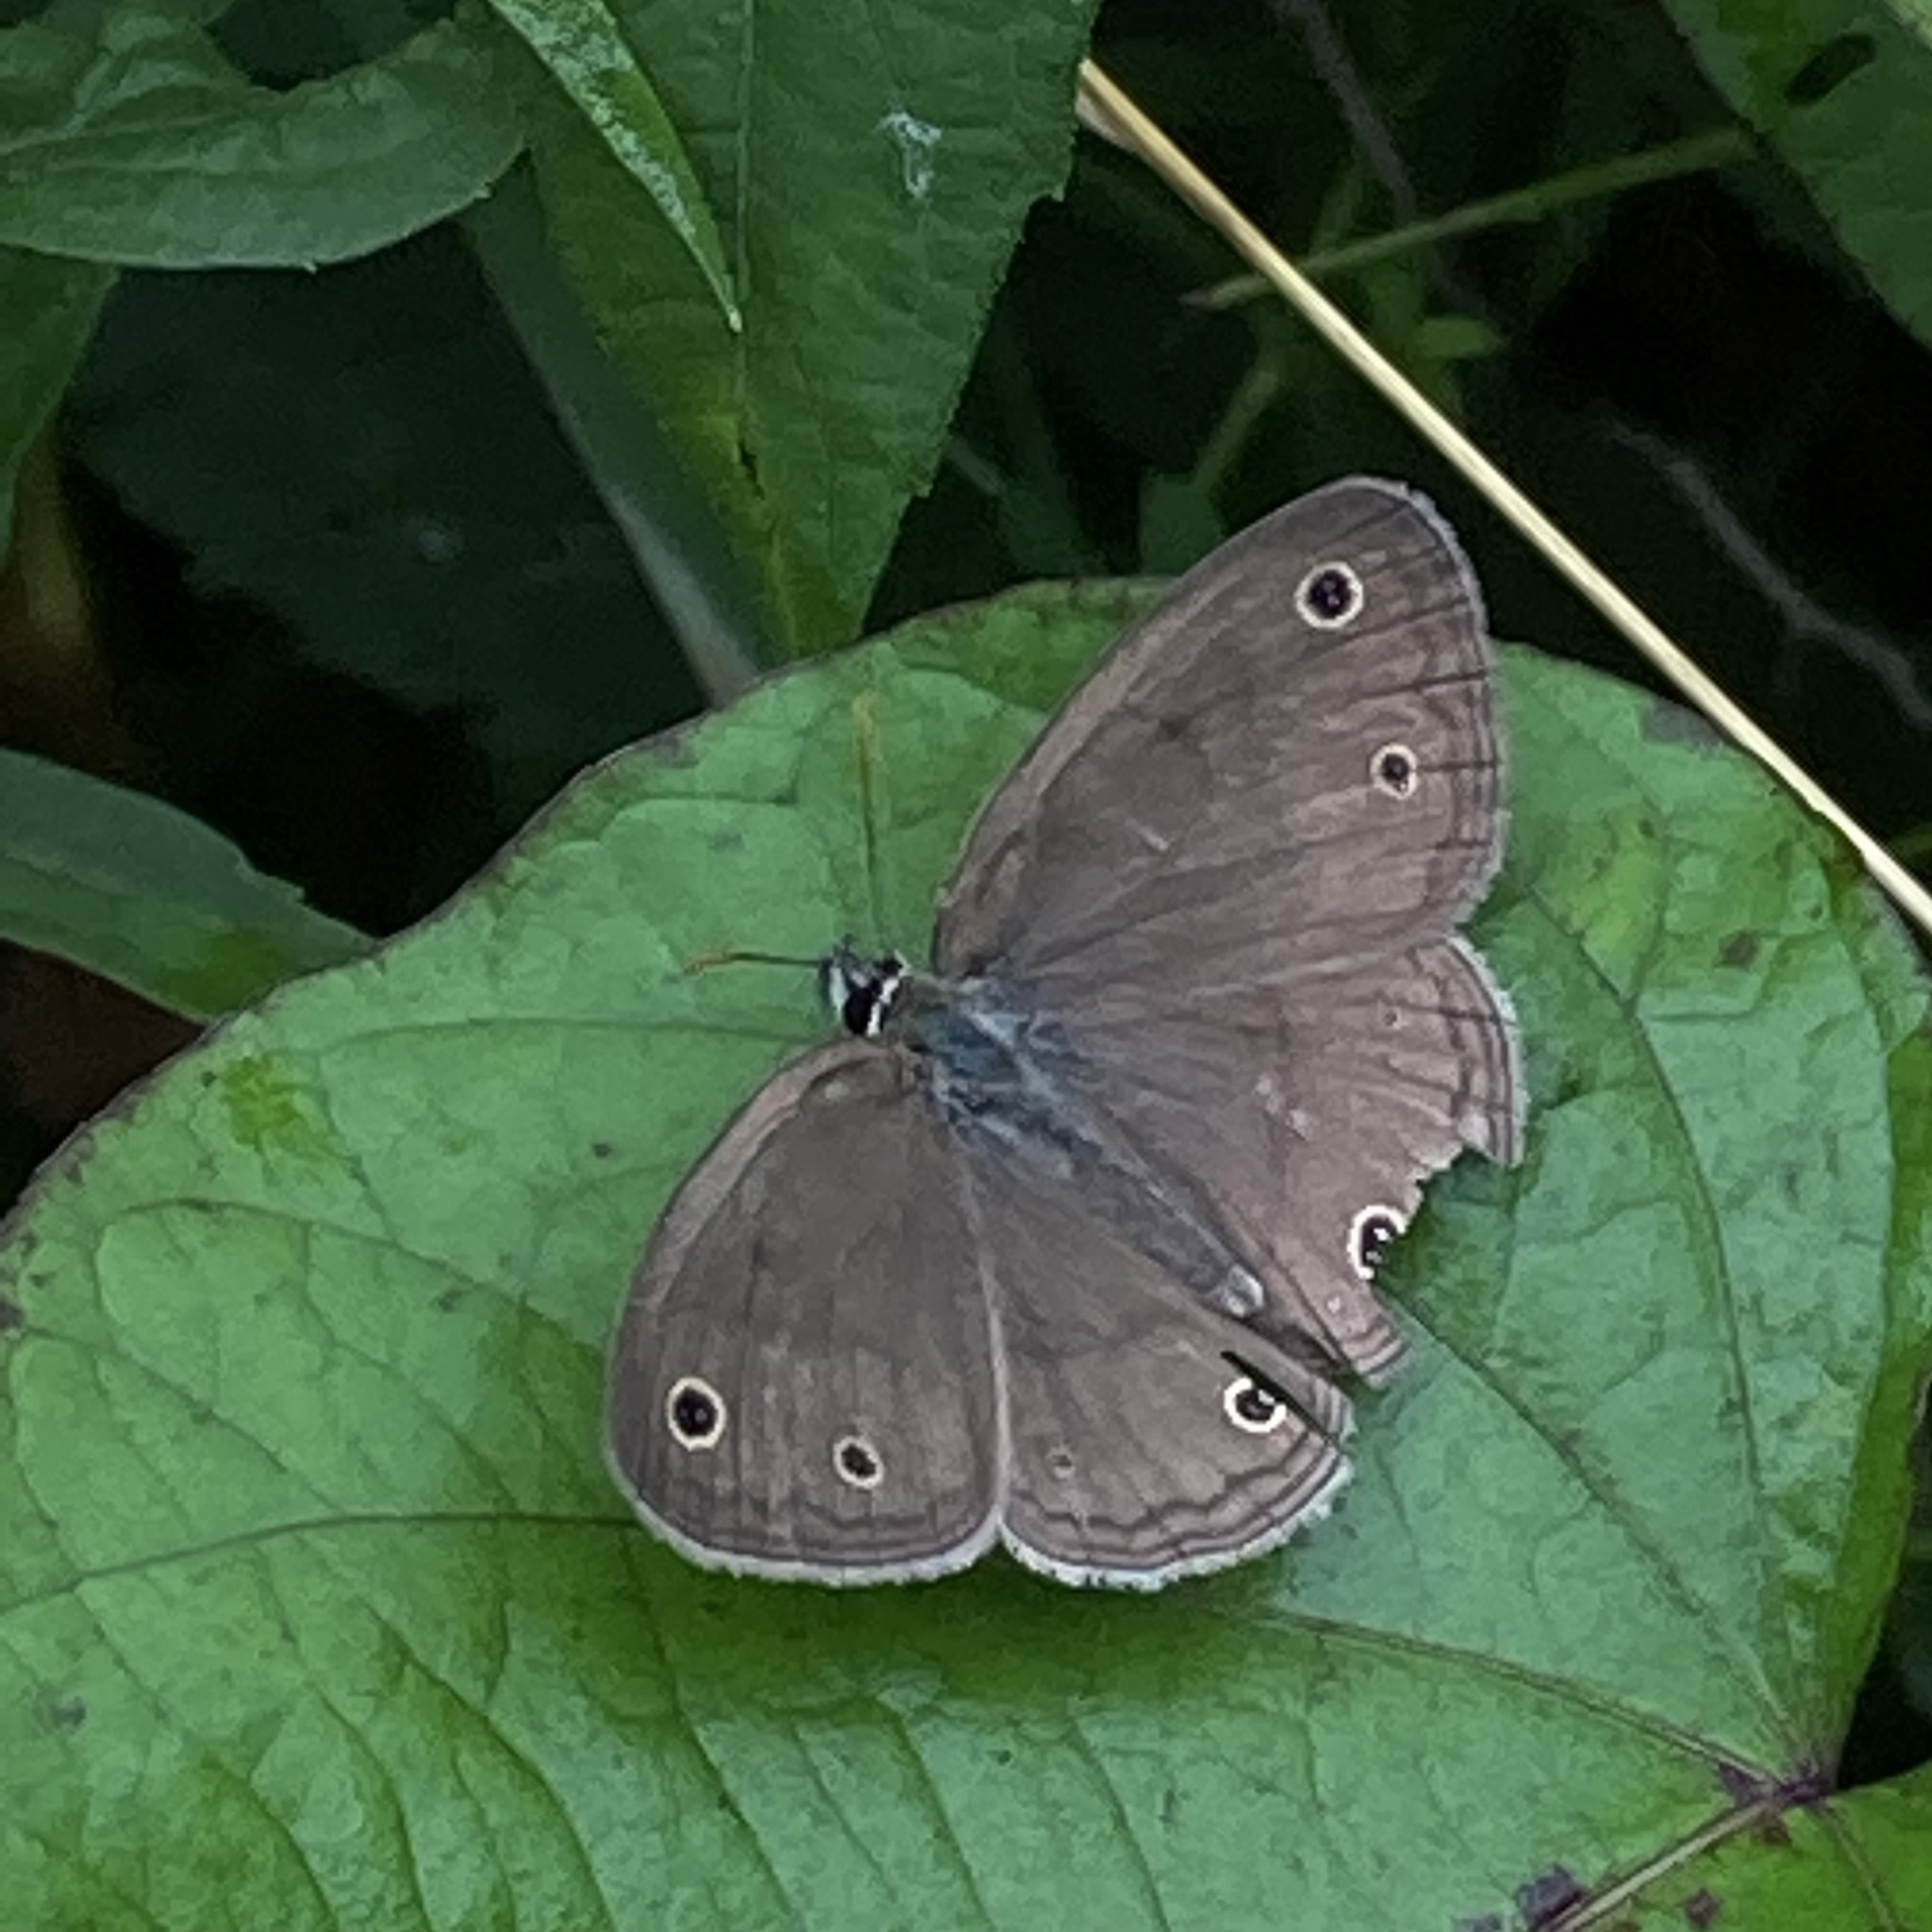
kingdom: Animalia
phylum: Arthropoda
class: Insecta
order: Lepidoptera
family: Nymphalidae
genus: Euptychia
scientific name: Euptychia cymela
